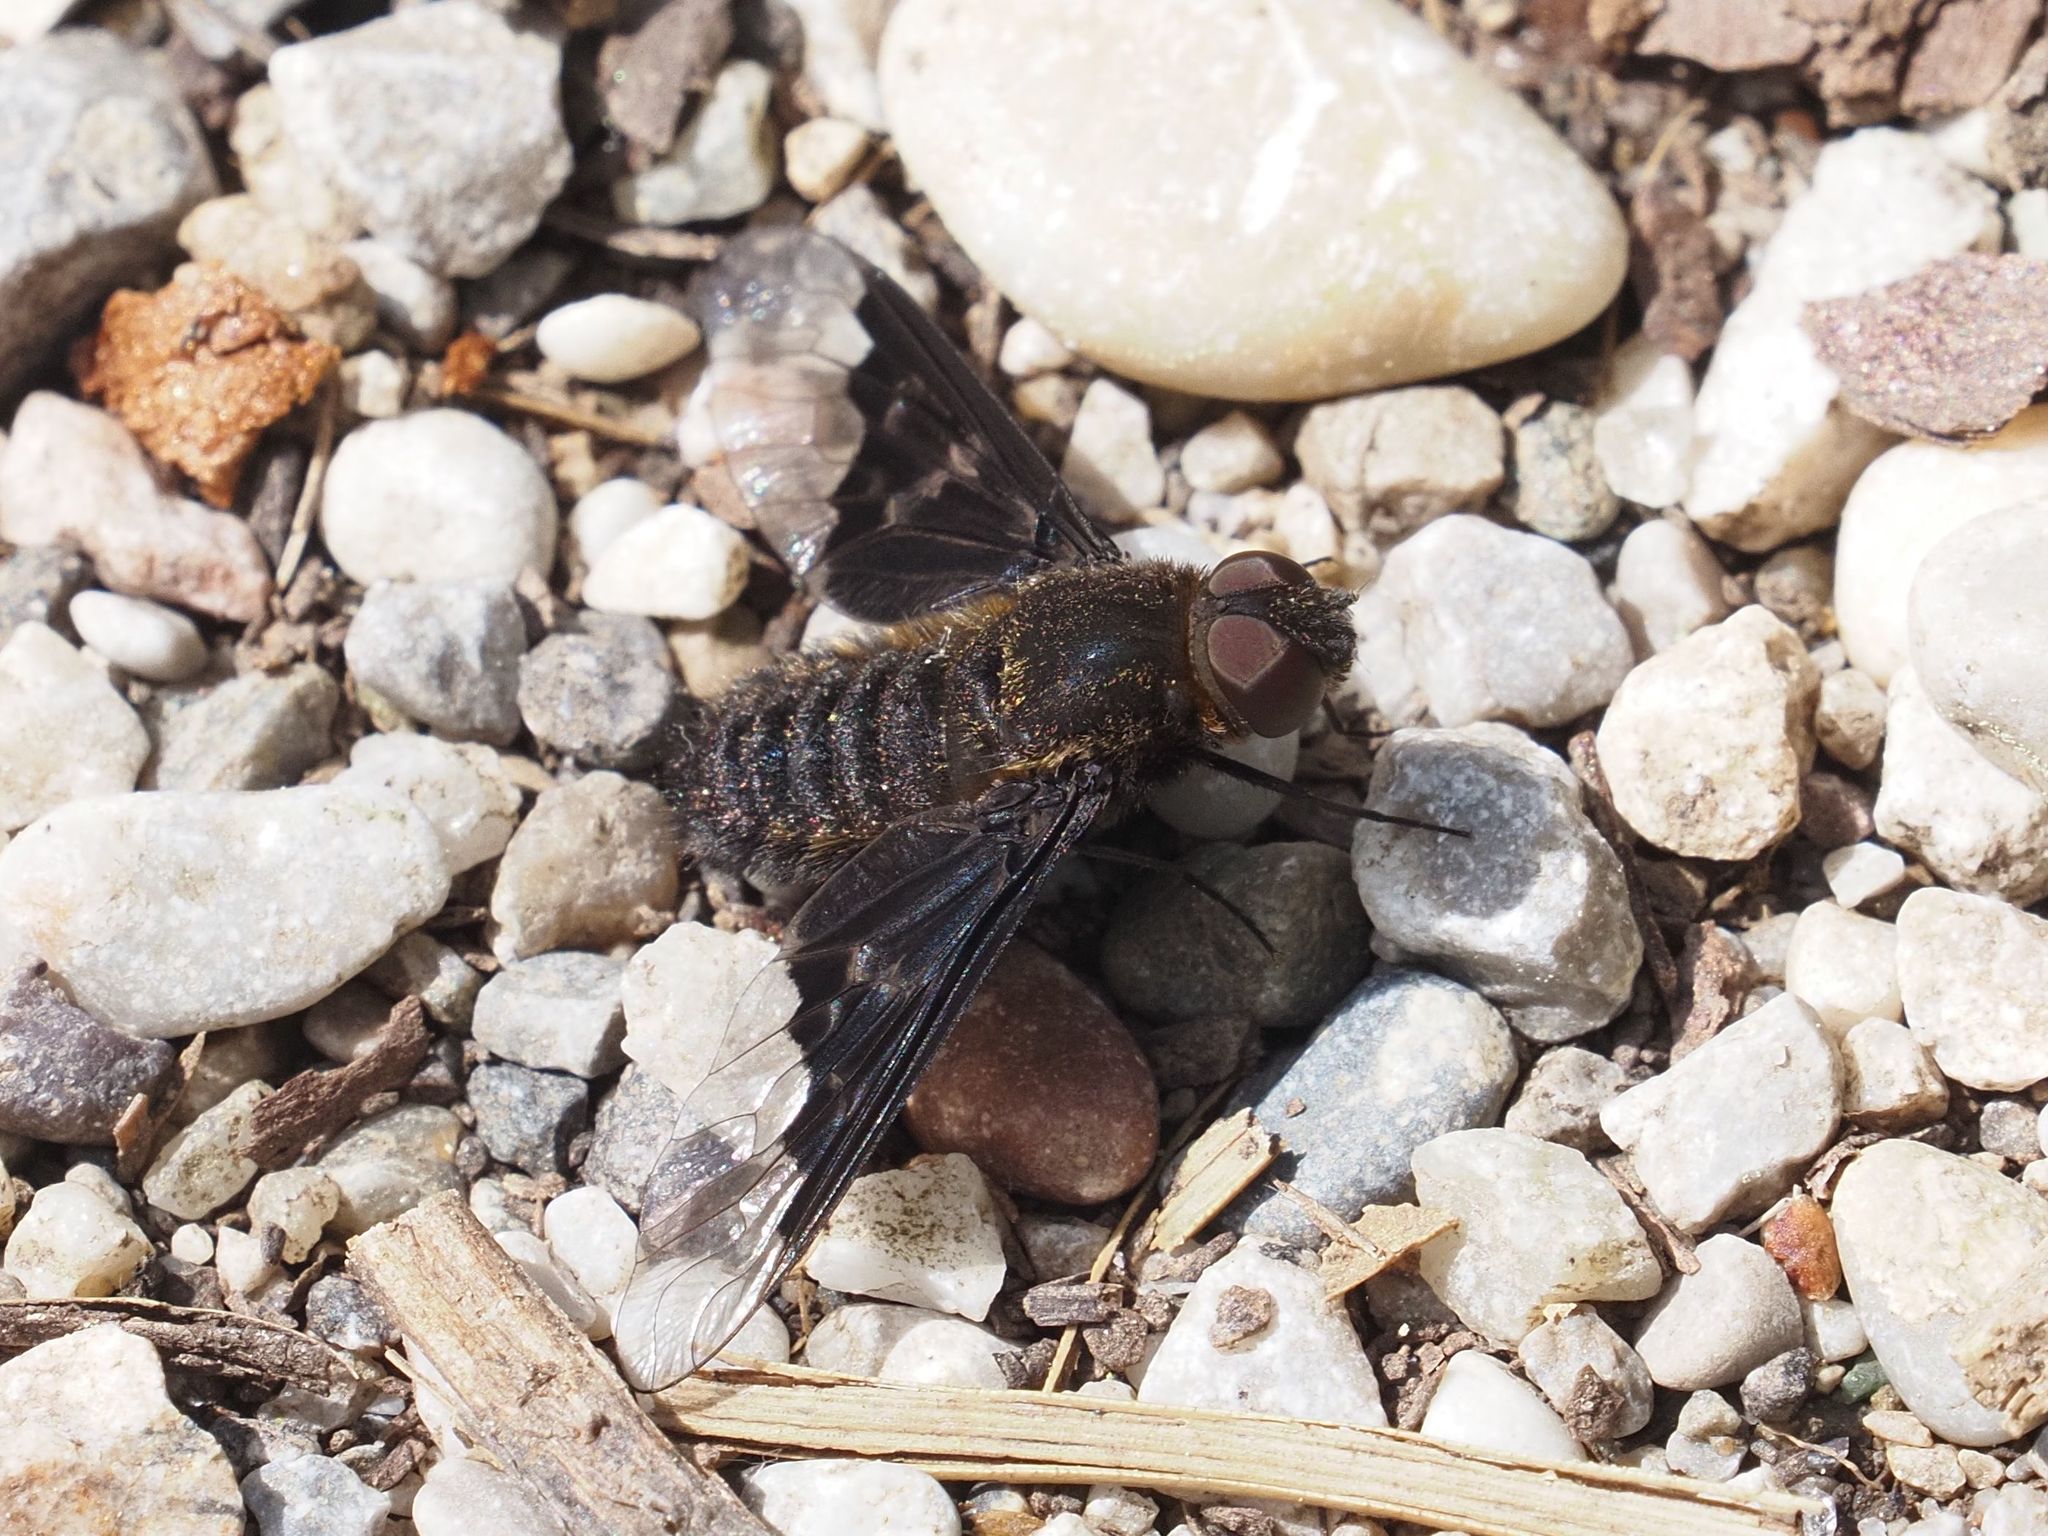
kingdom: Animalia
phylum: Arthropoda
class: Insecta
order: Diptera
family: Bombyliidae
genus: Hemipenthes
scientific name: Hemipenthes morio
